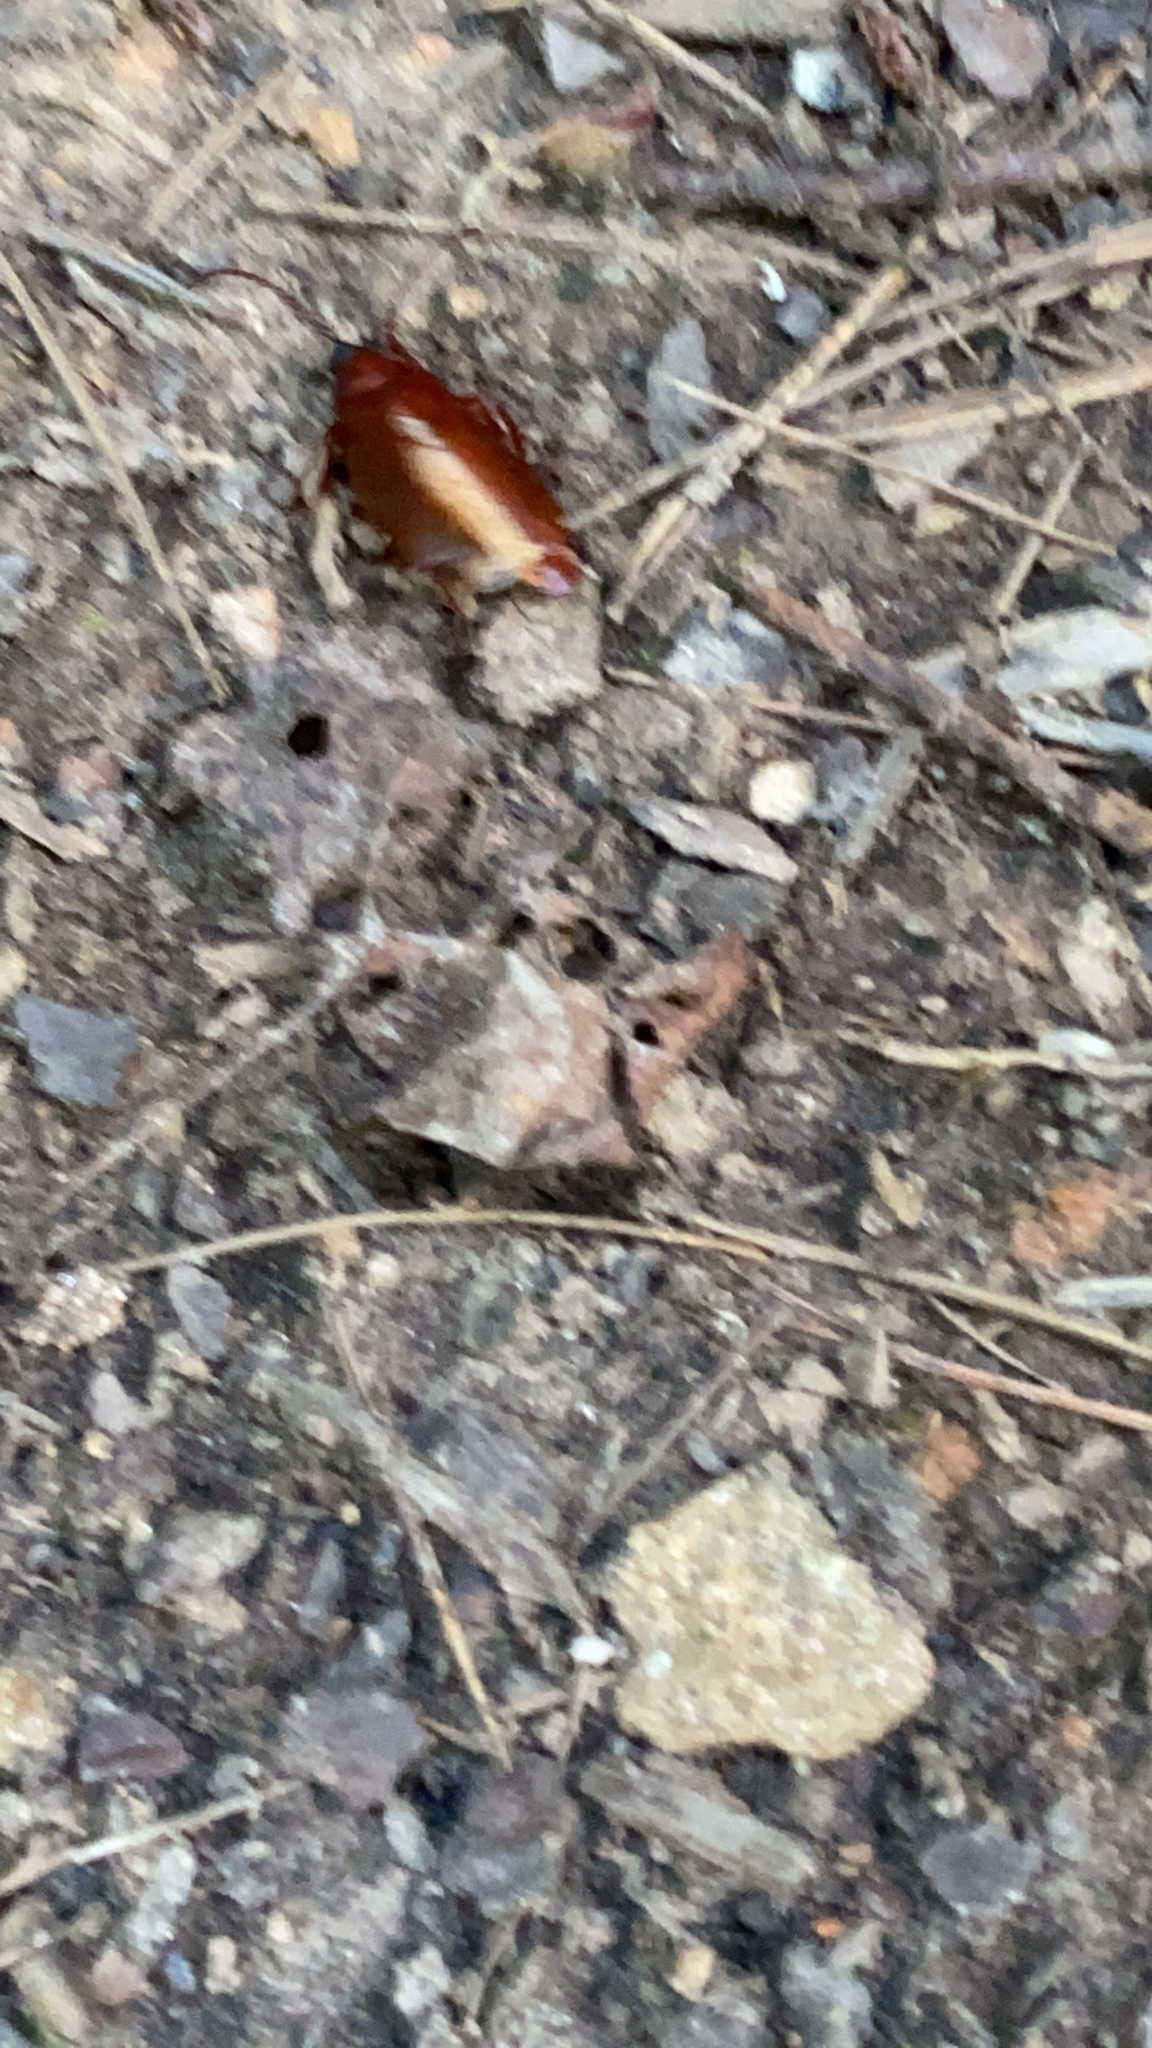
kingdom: Animalia
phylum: Arthropoda
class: Insecta
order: Coleoptera
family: Cerambycidae
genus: Orthosoma
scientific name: Orthosoma brunneum
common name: Brown prionid beetle
